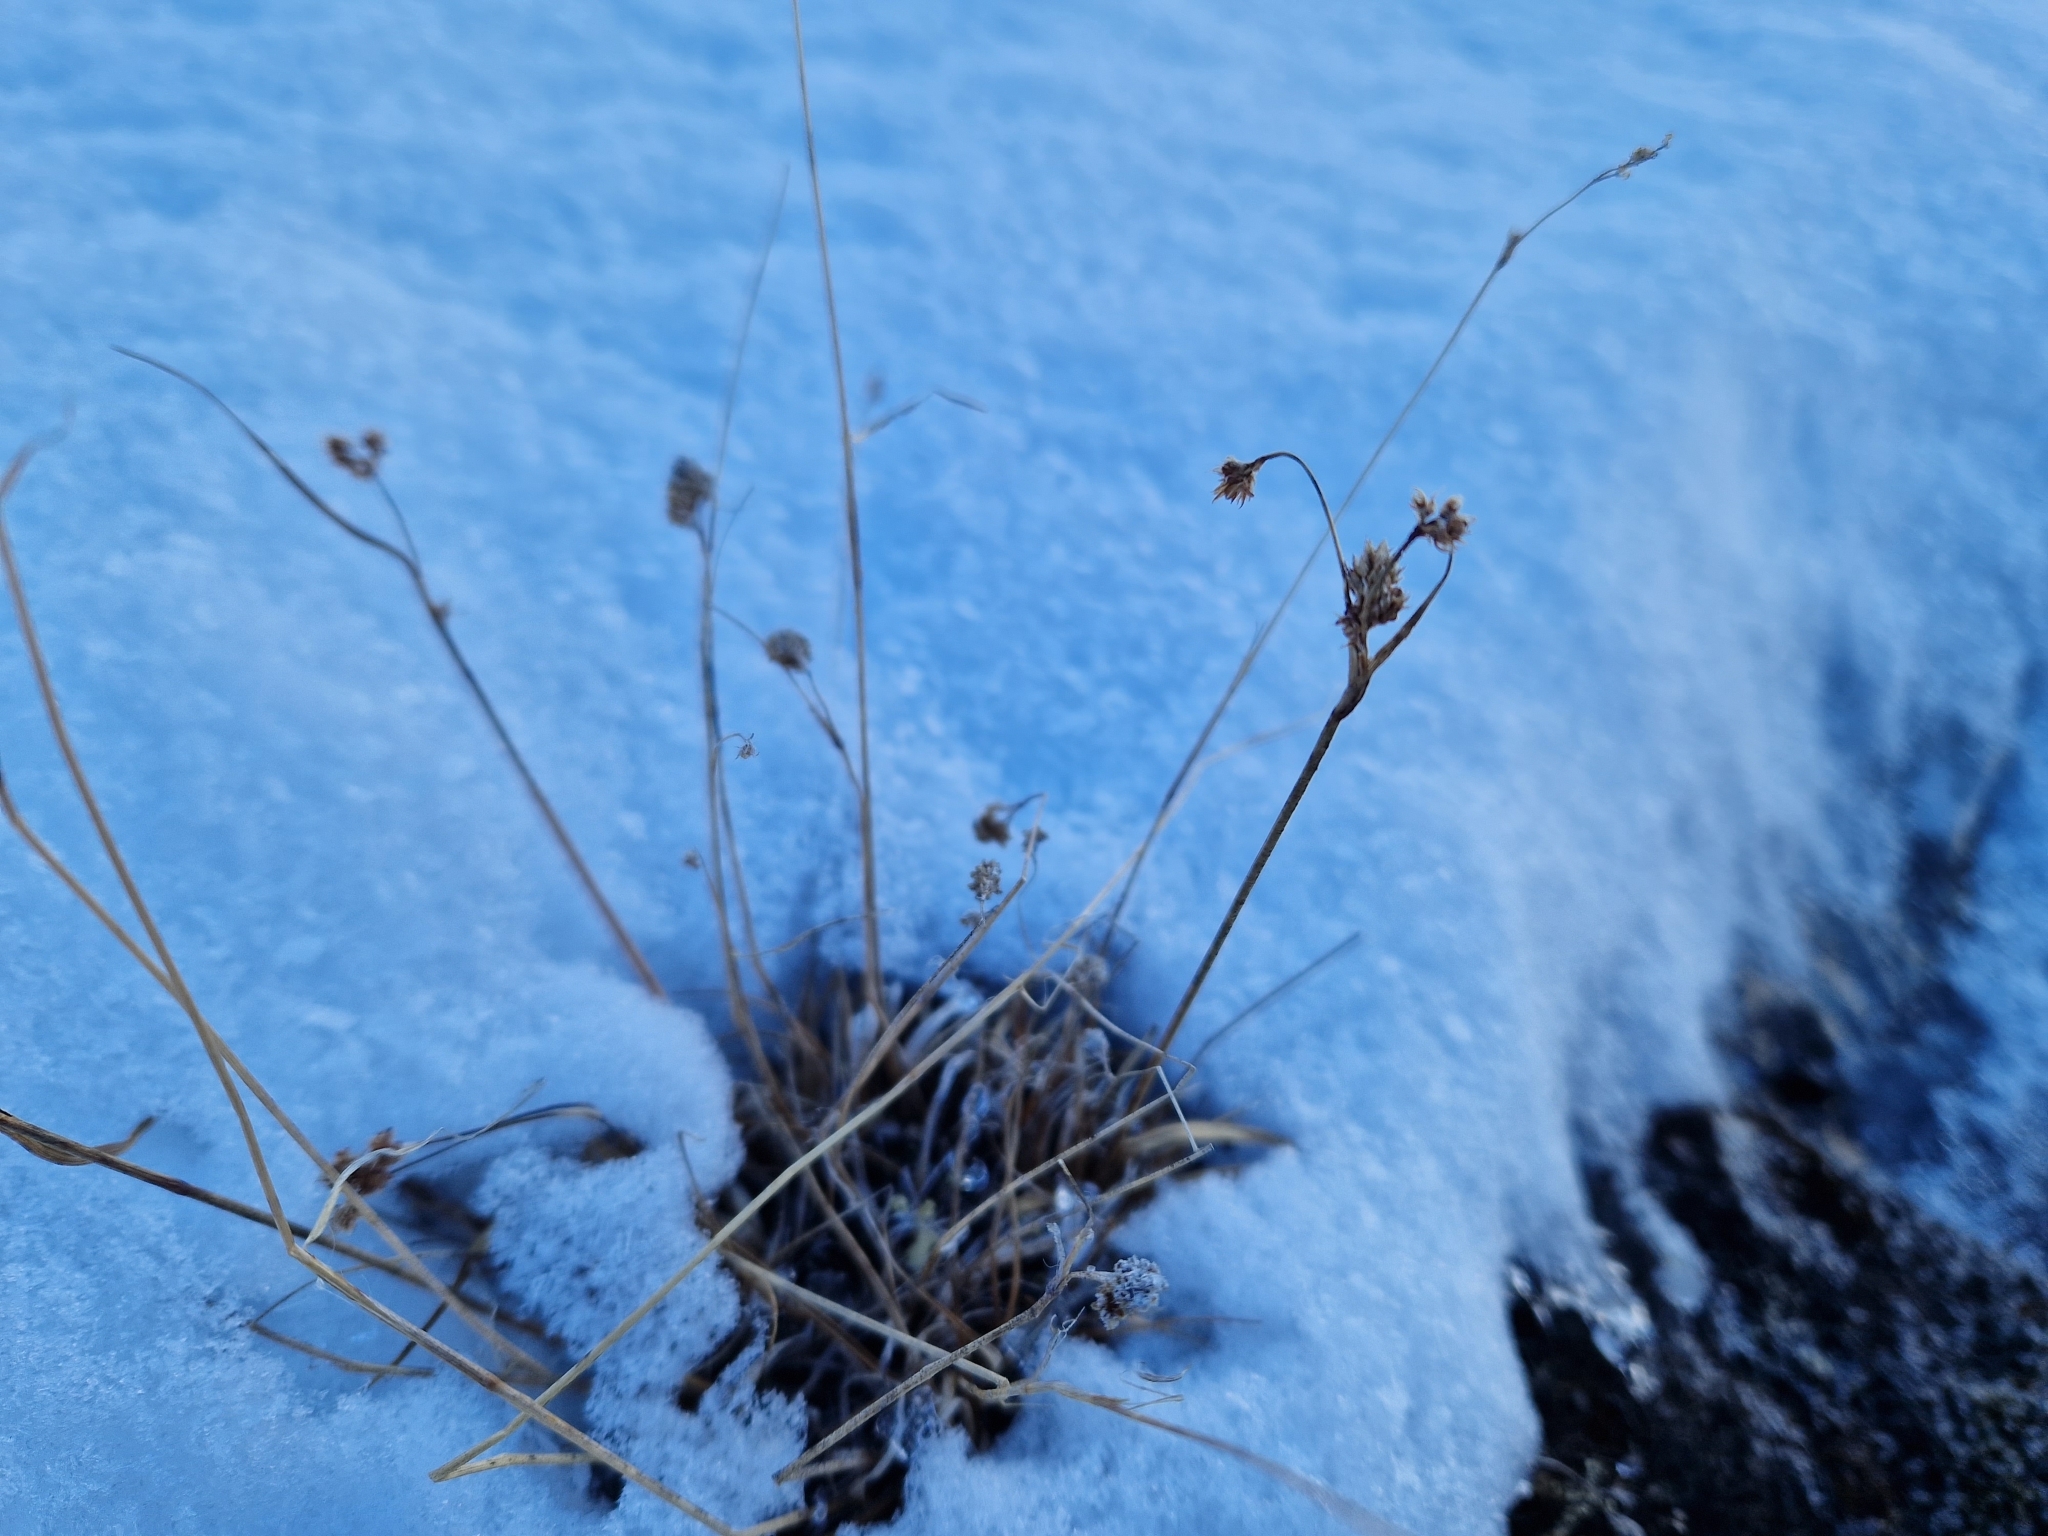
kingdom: Plantae
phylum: Tracheophyta
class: Liliopsida
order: Poales
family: Juncaceae
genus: Luzula
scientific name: Luzula confusa
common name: Northern wood rush
